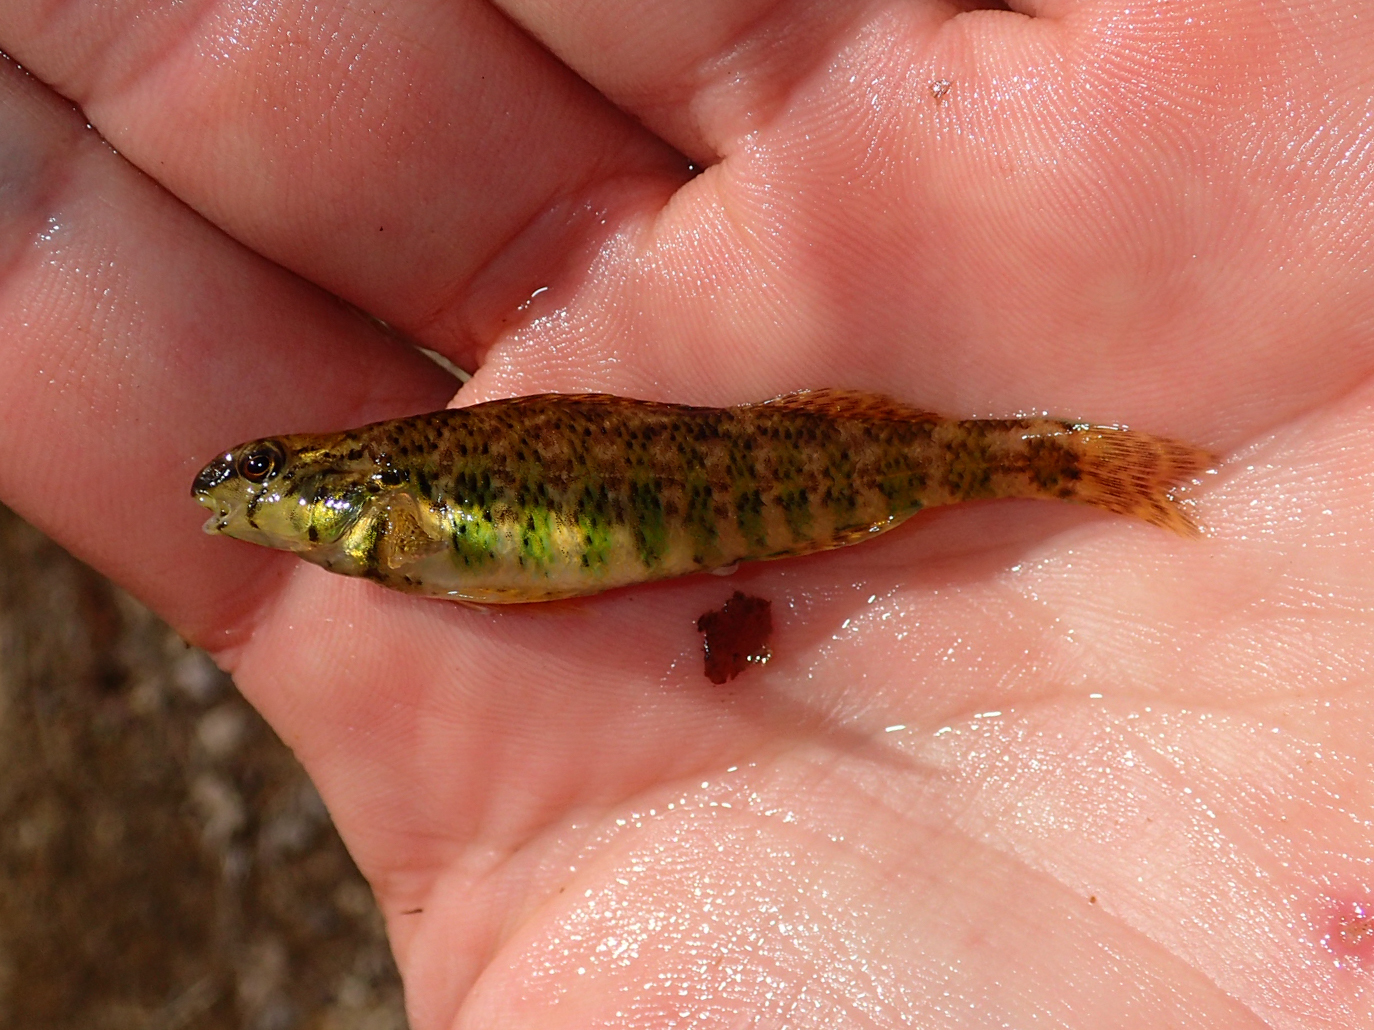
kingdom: Animalia
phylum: Chordata
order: Perciformes
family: Percidae
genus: Etheostoma
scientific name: Etheostoma zonale
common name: Banded darter
